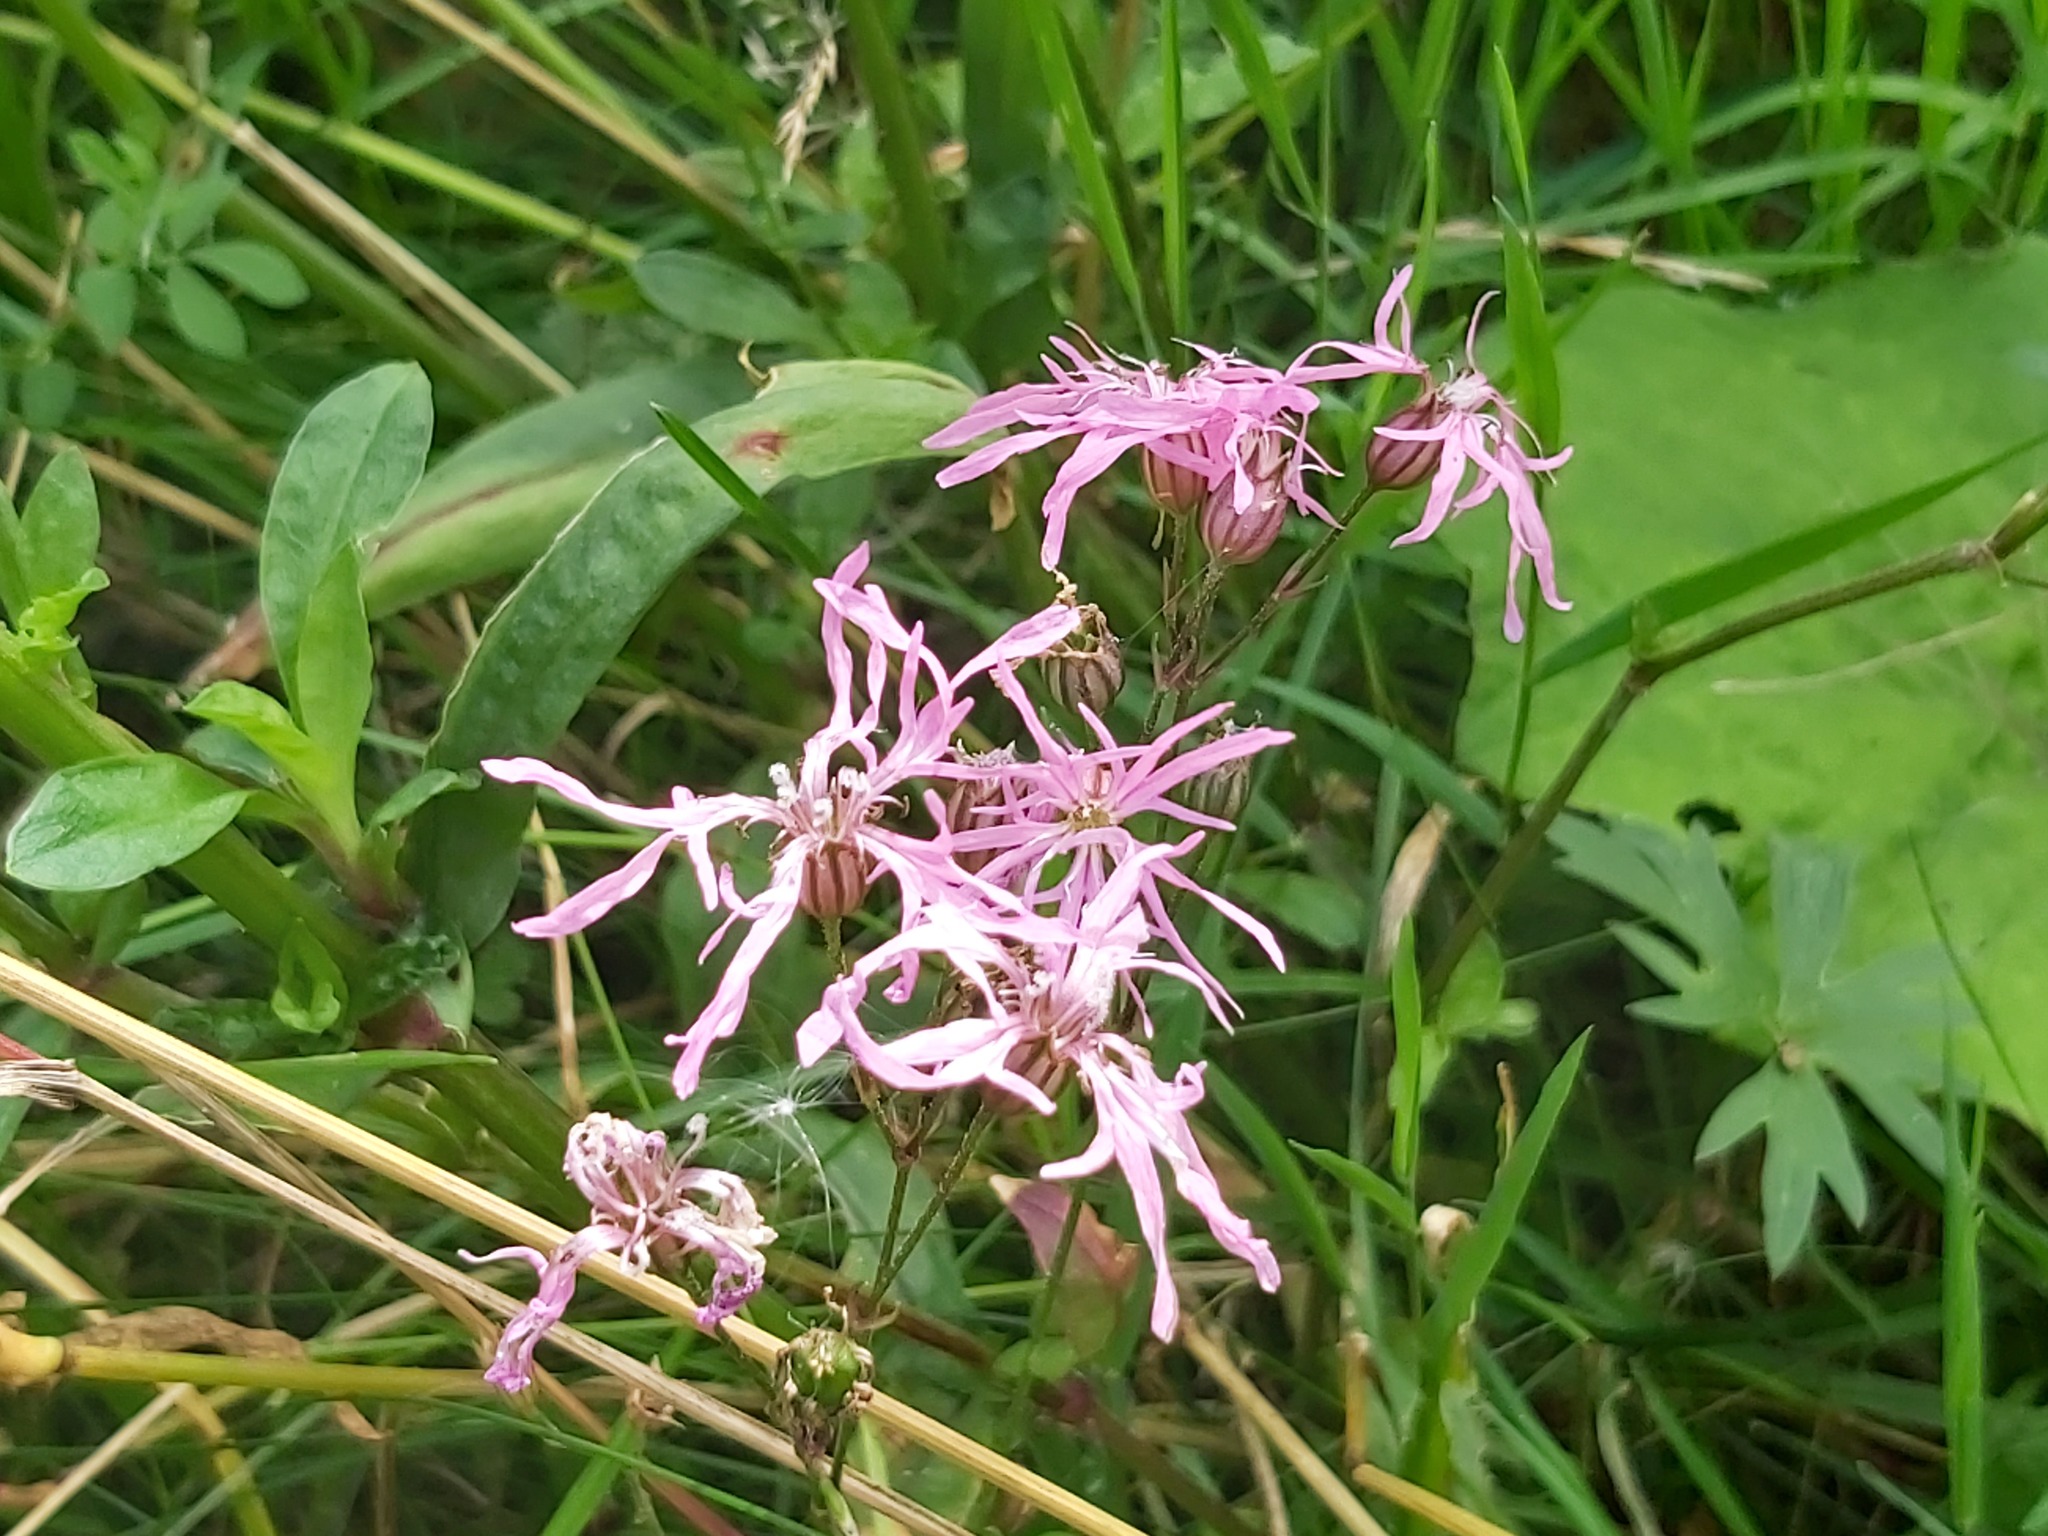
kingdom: Plantae
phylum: Tracheophyta
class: Magnoliopsida
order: Caryophyllales
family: Caryophyllaceae
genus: Silene
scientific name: Silene flos-cuculi
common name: Ragged-robin
